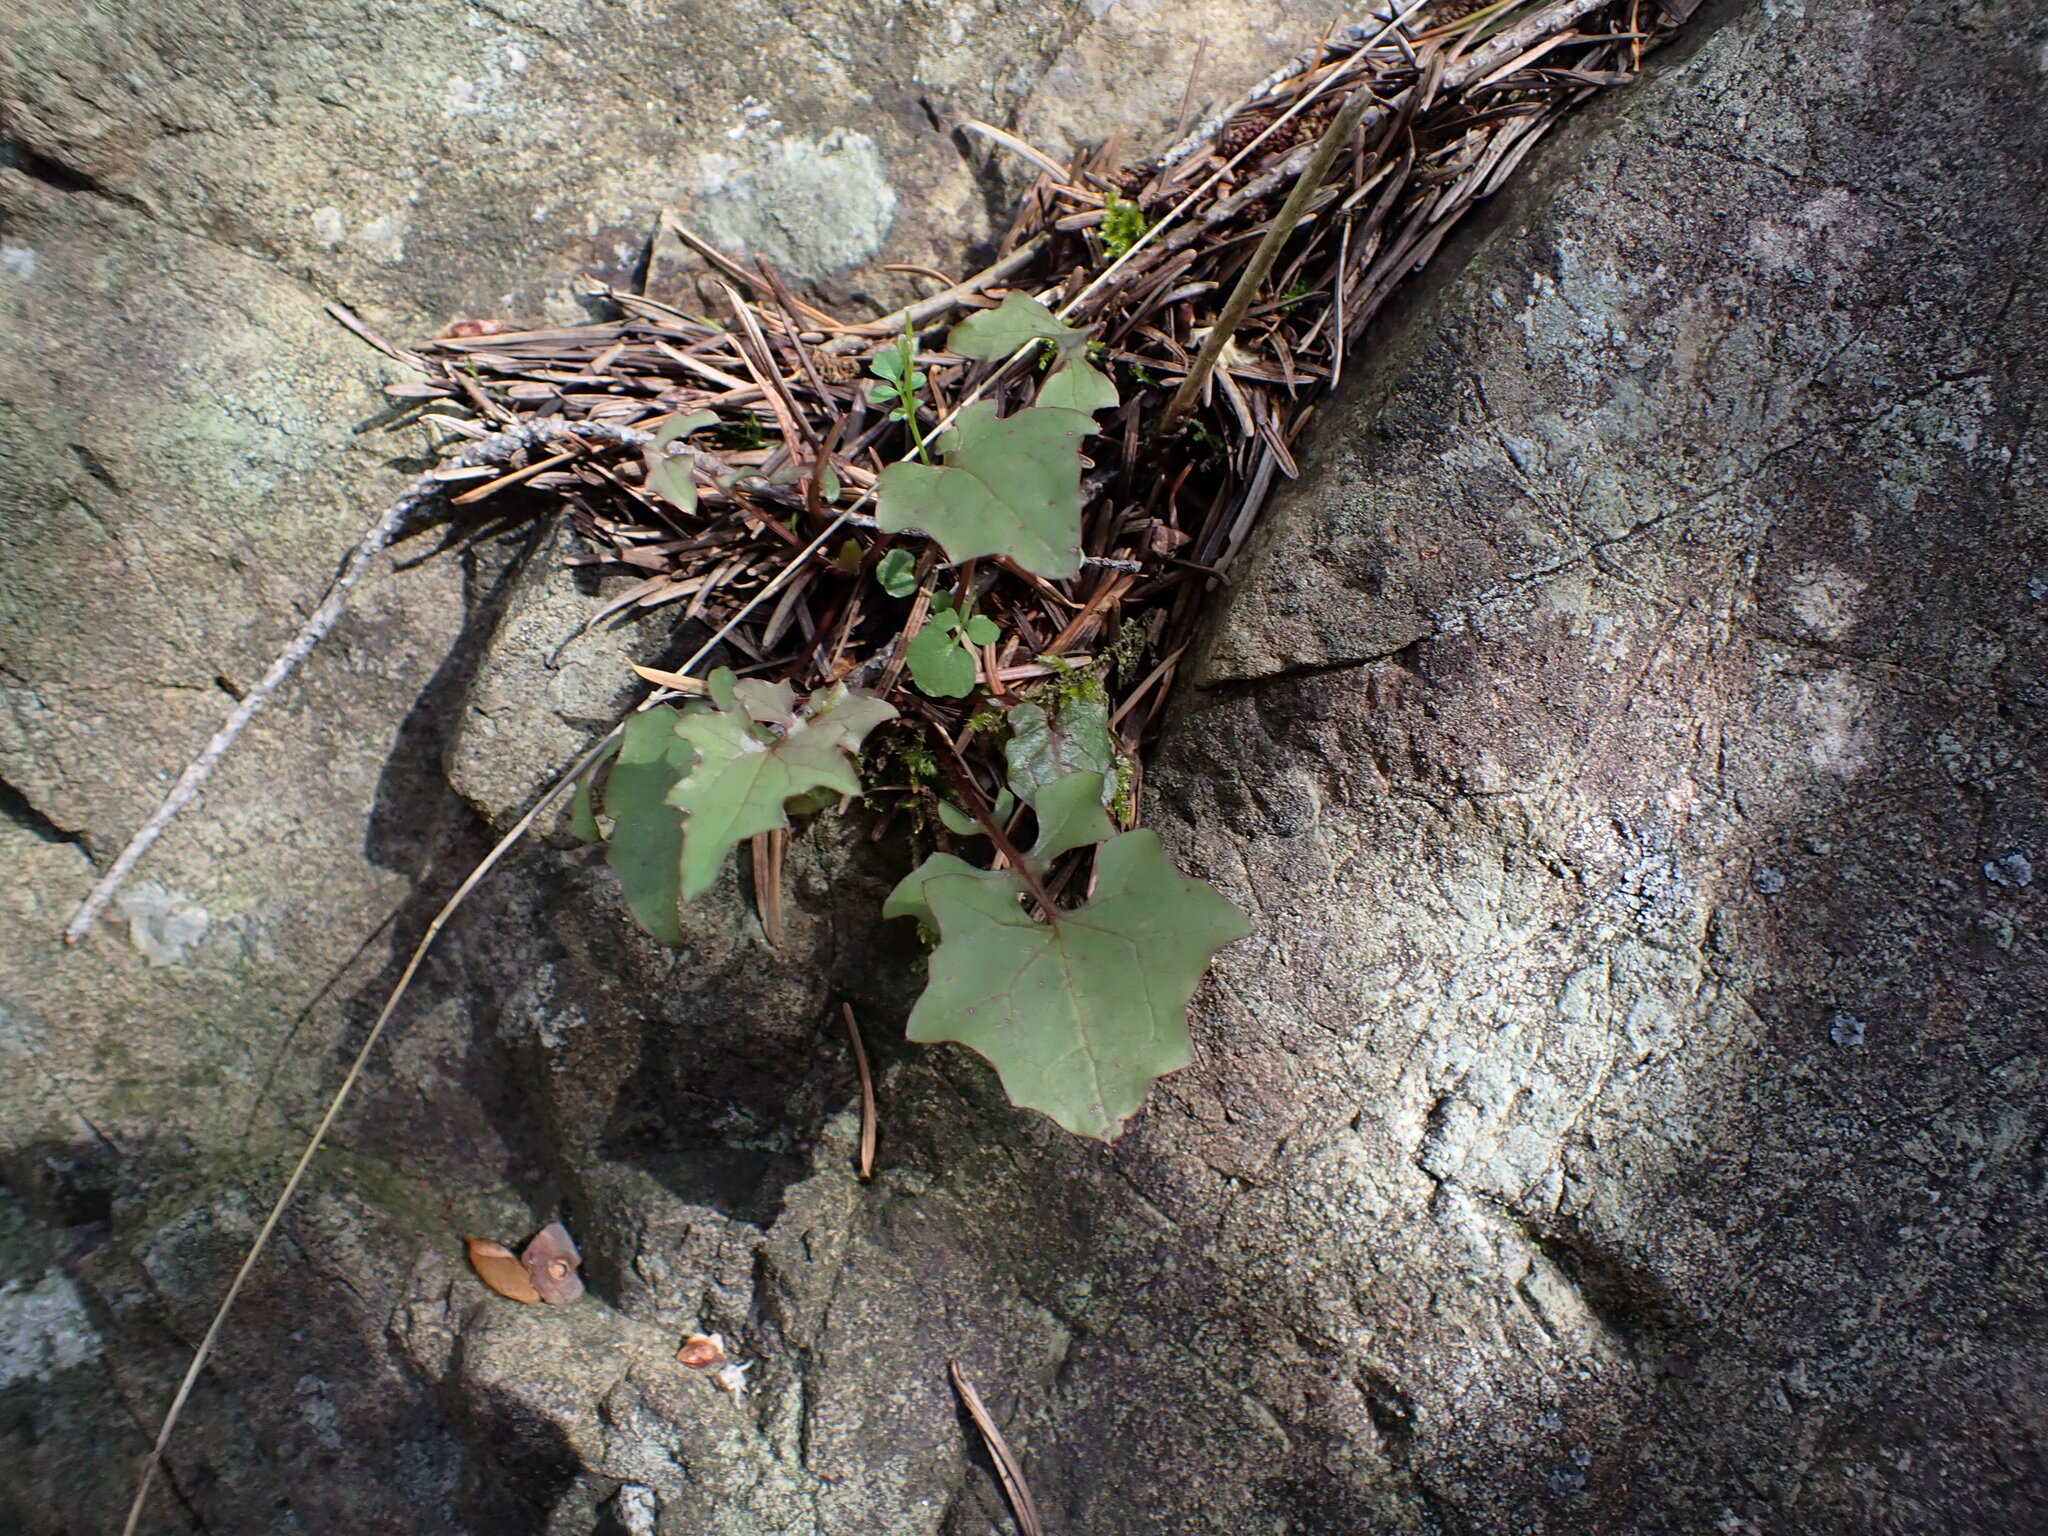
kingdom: Plantae
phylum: Tracheophyta
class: Magnoliopsida
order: Asterales
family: Asteraceae
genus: Mycelis
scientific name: Mycelis muralis
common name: Wall lettuce
